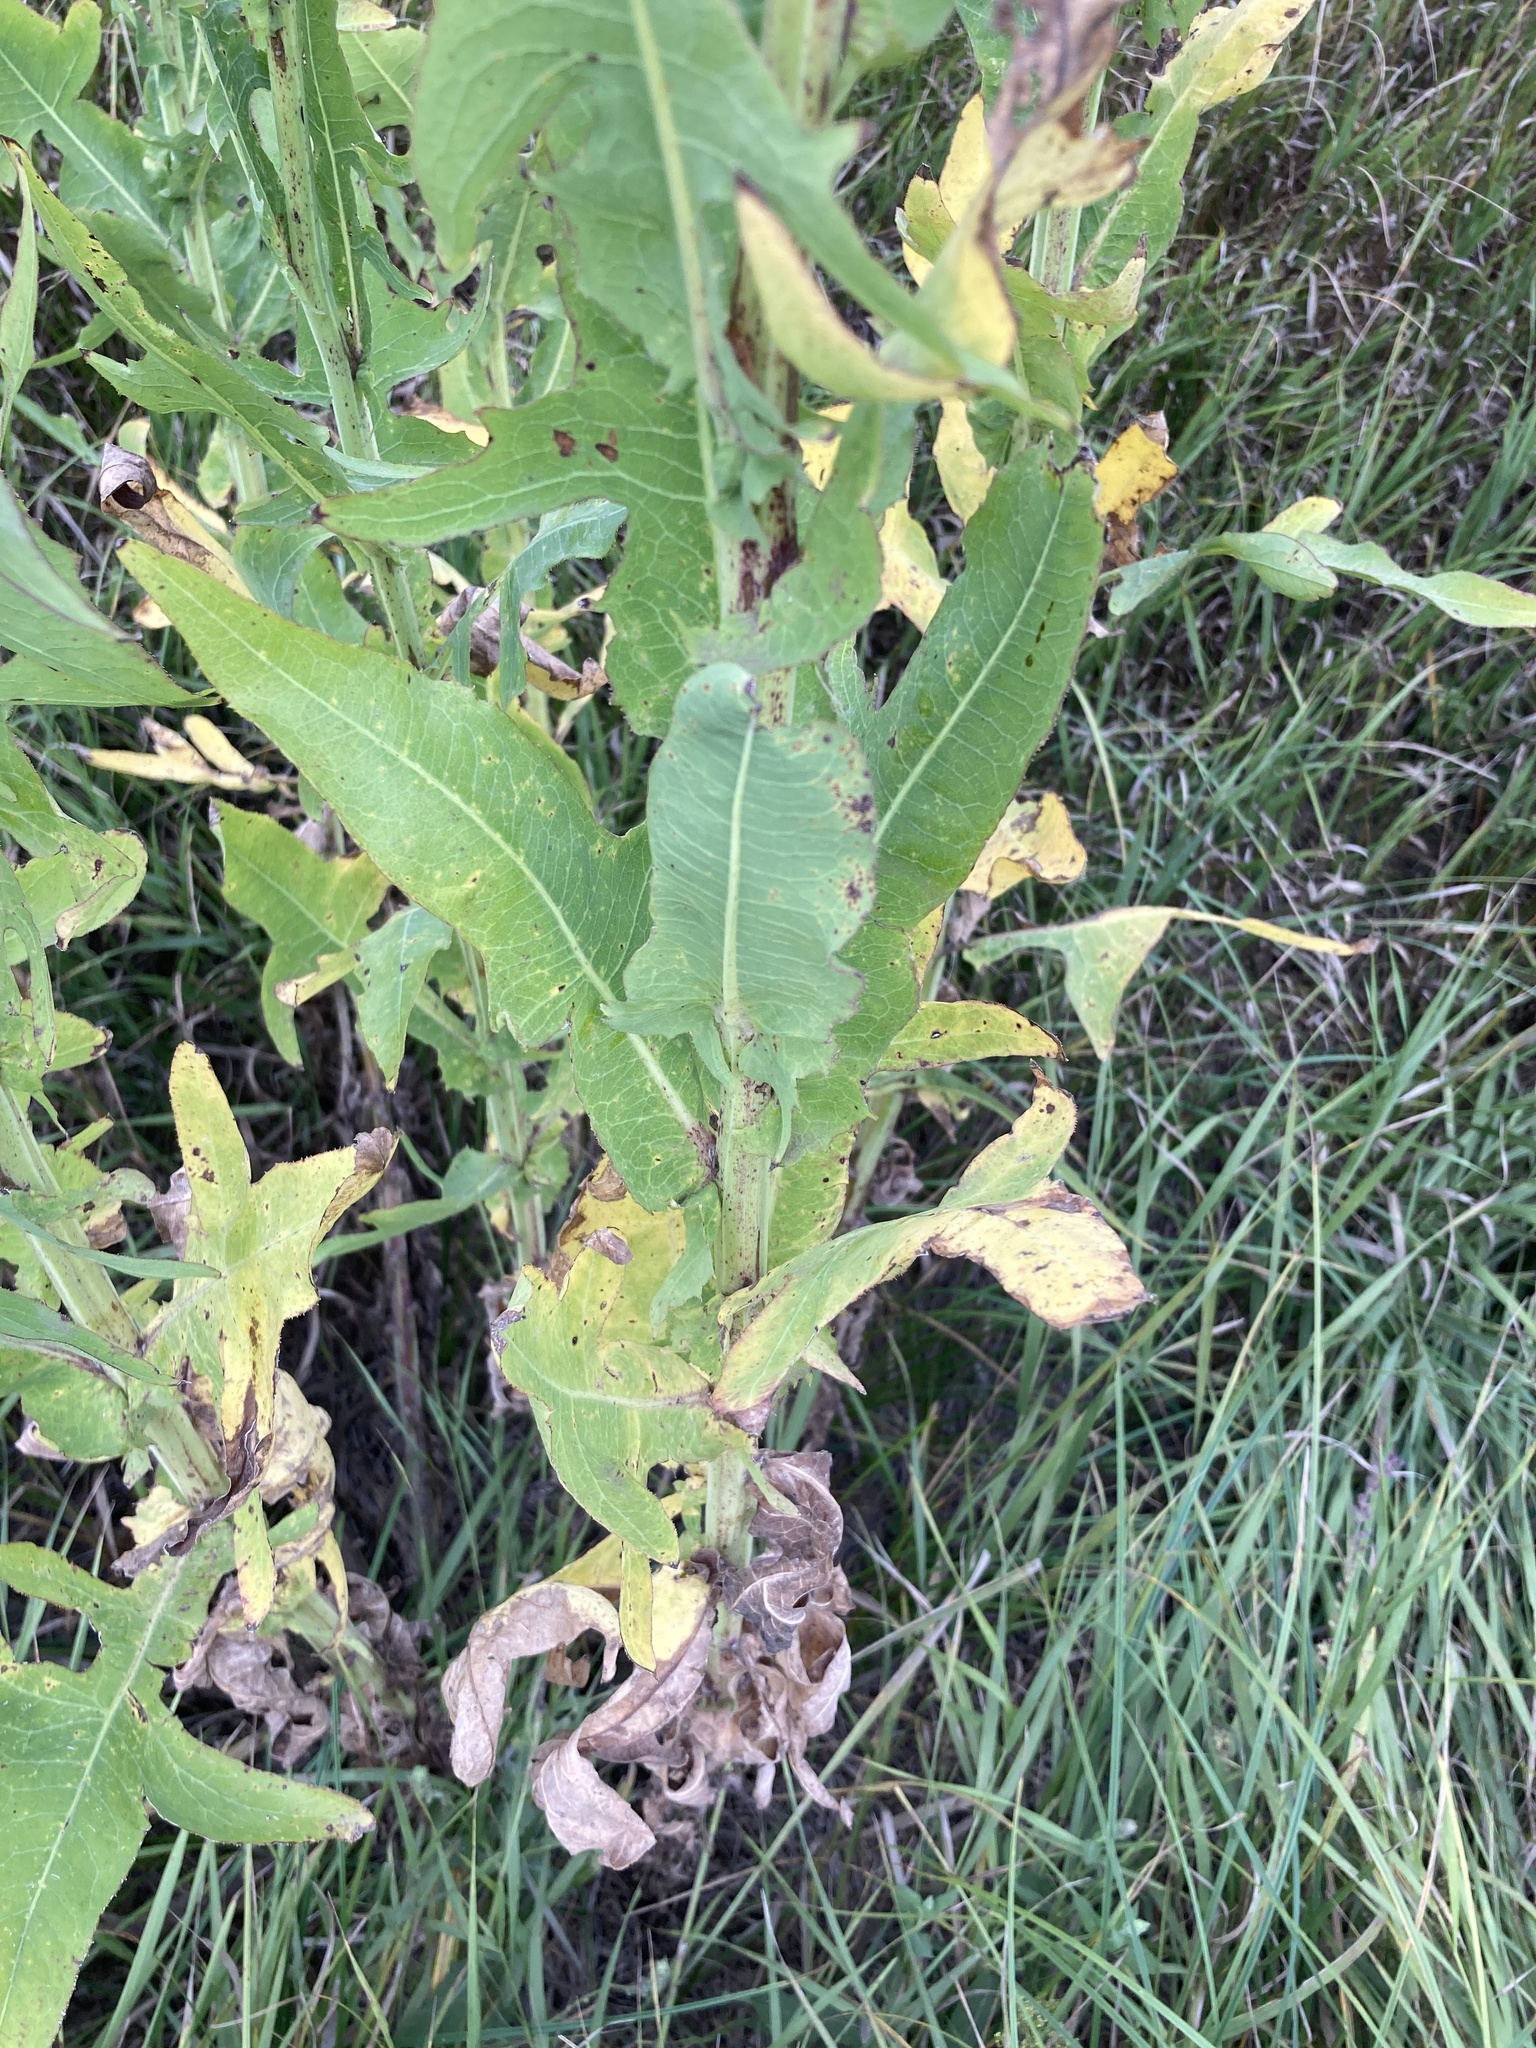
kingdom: Plantae
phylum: Tracheophyta
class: Magnoliopsida
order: Asterales
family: Asteraceae
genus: Sonchus
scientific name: Sonchus palustris
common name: Marsh sow-thistle
